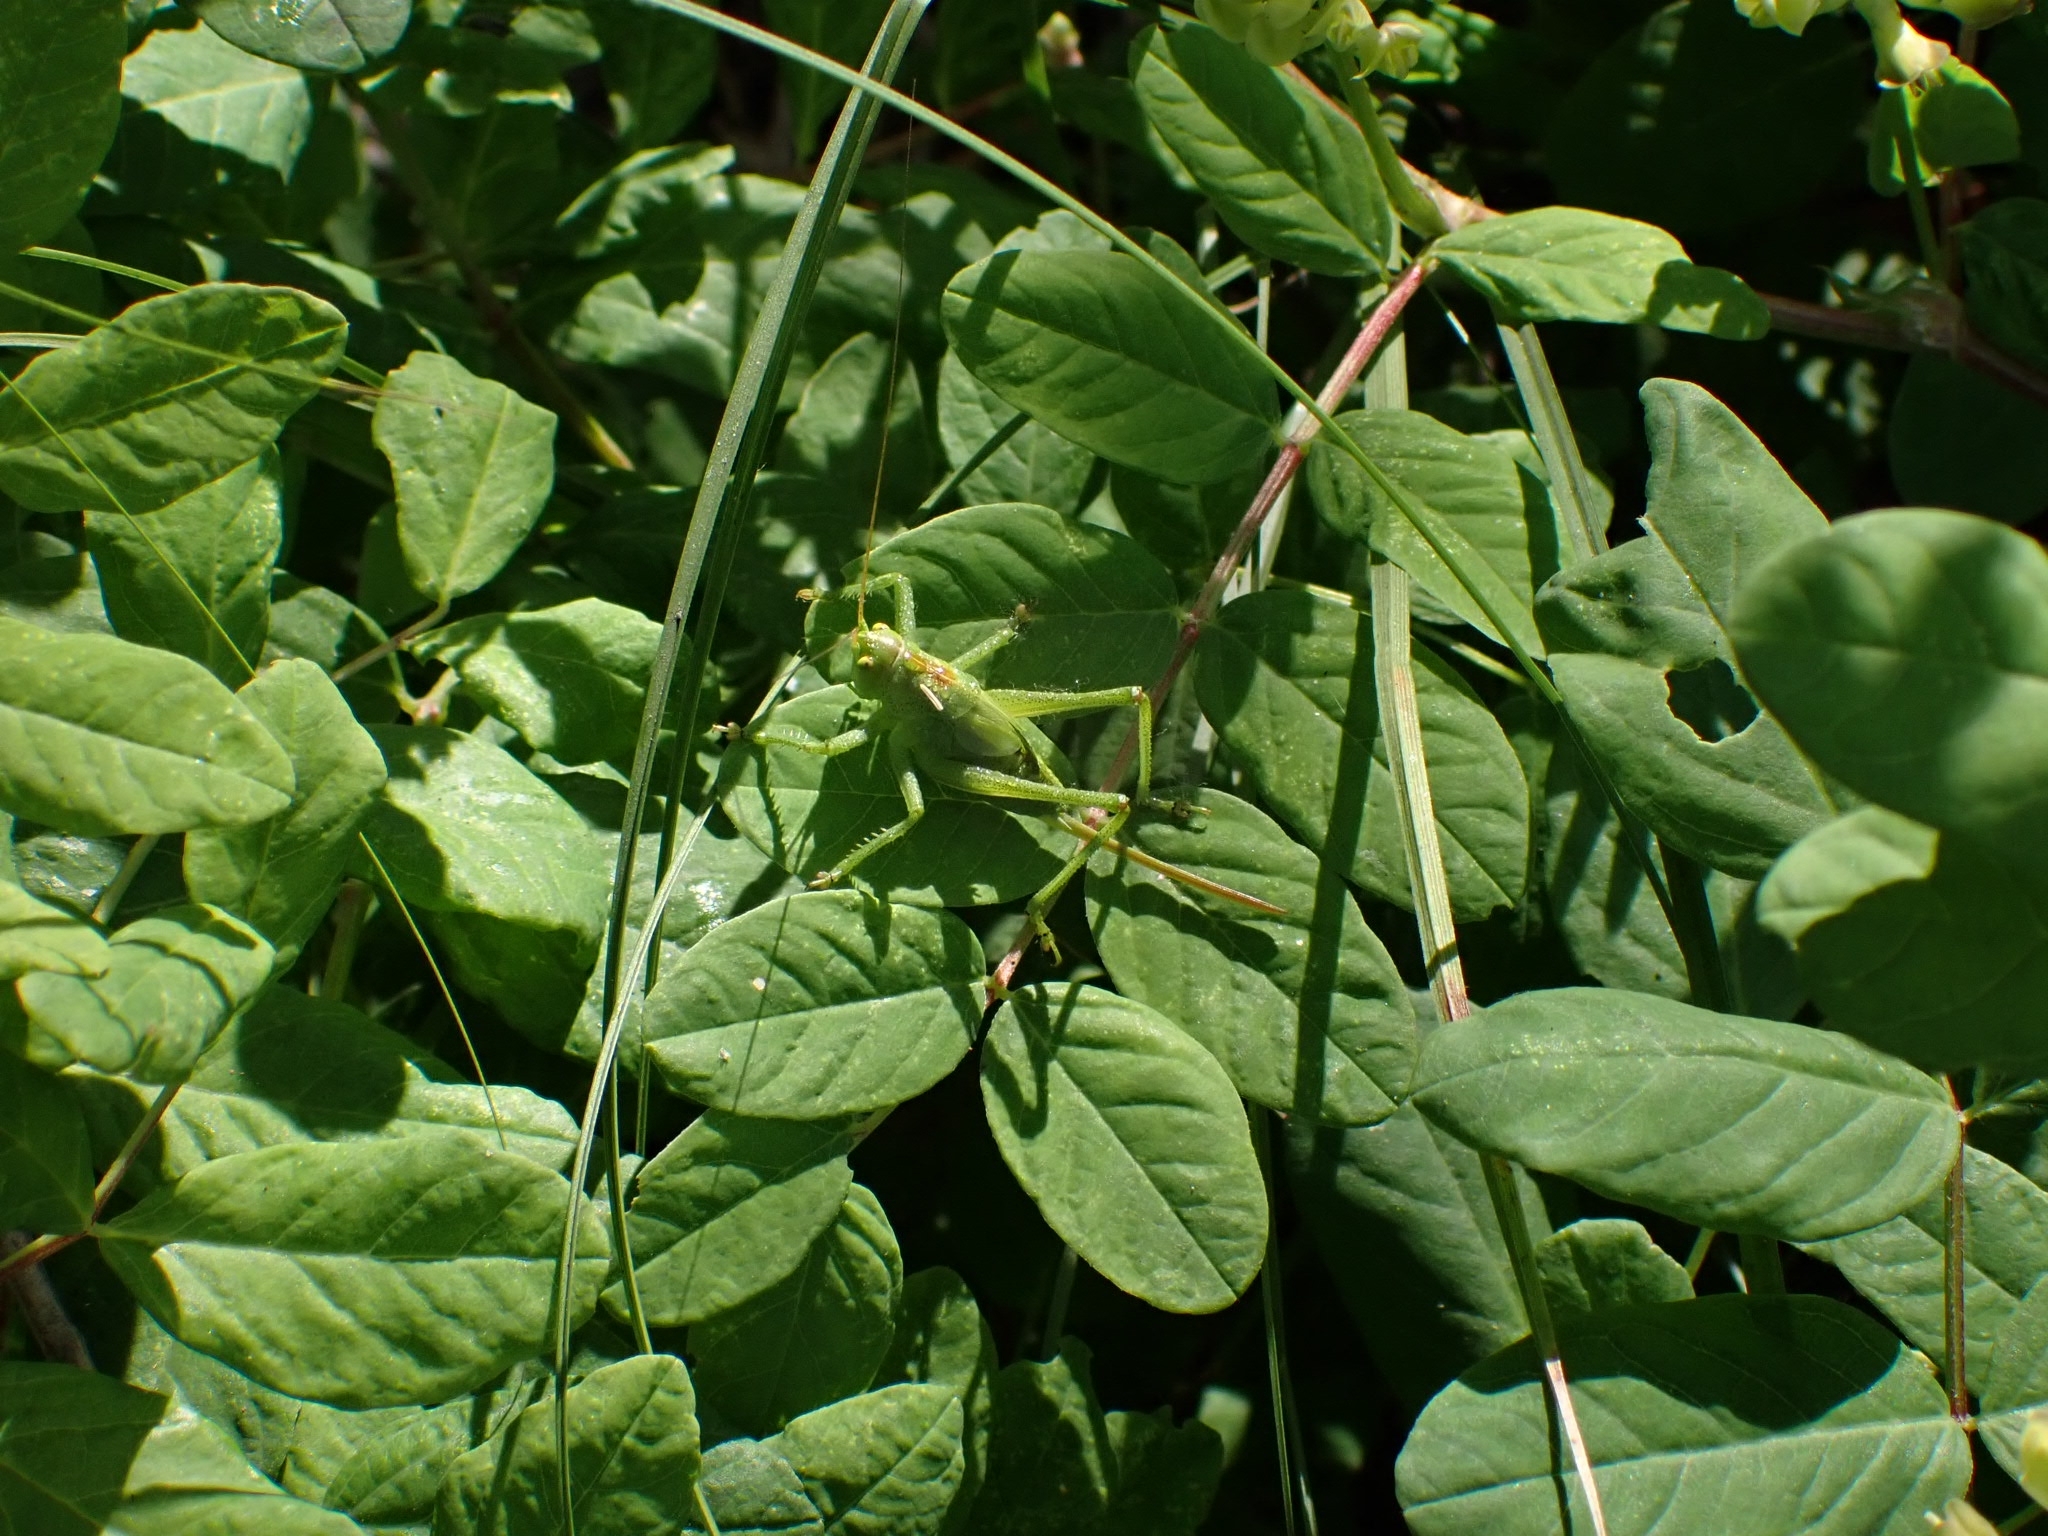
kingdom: Animalia
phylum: Arthropoda
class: Insecta
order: Orthoptera
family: Tettigoniidae
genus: Tettigonia
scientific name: Tettigonia cantans
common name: Upland green bush-cricket
